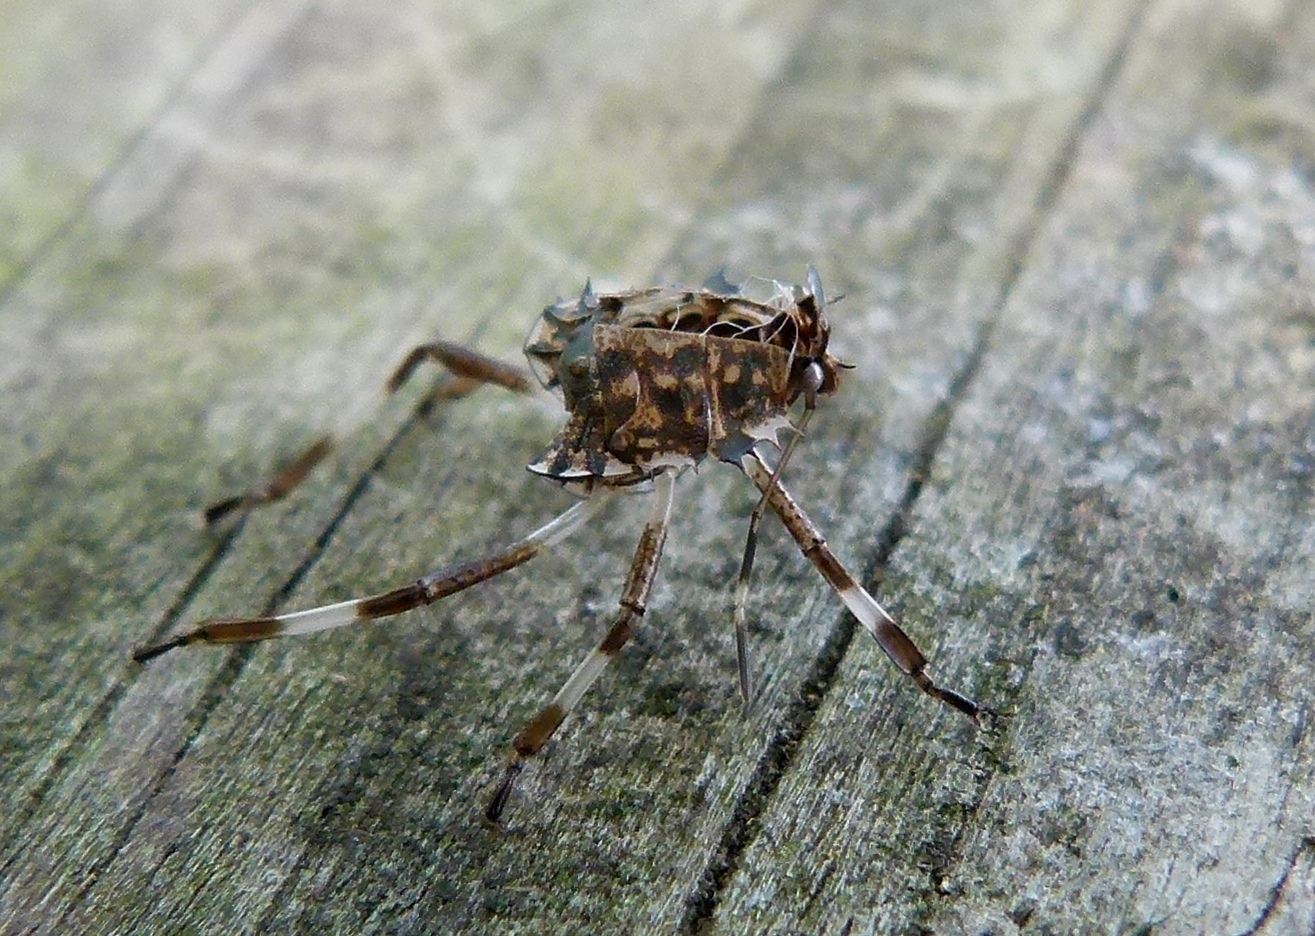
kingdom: Animalia
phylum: Arthropoda
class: Insecta
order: Hemiptera
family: Pentatomidae
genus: Halyomorpha
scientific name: Halyomorpha halys
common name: Brown marmorated stink bug
